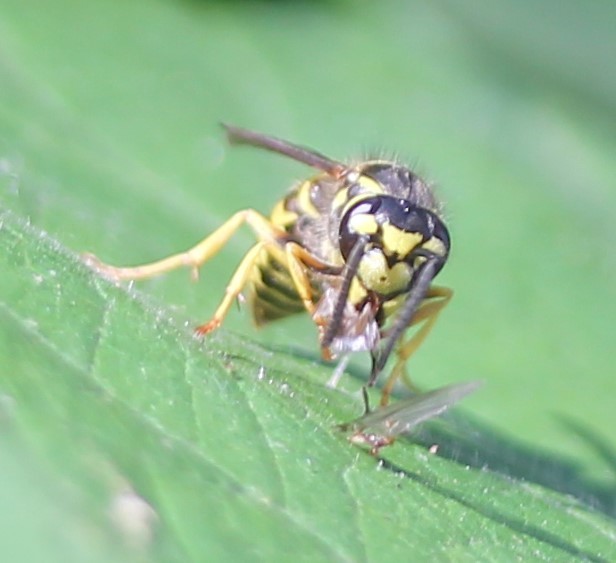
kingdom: Animalia
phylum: Arthropoda
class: Insecta
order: Hymenoptera
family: Vespidae
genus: Vespula
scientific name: Vespula maculifrons
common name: Eastern yellowjacket
